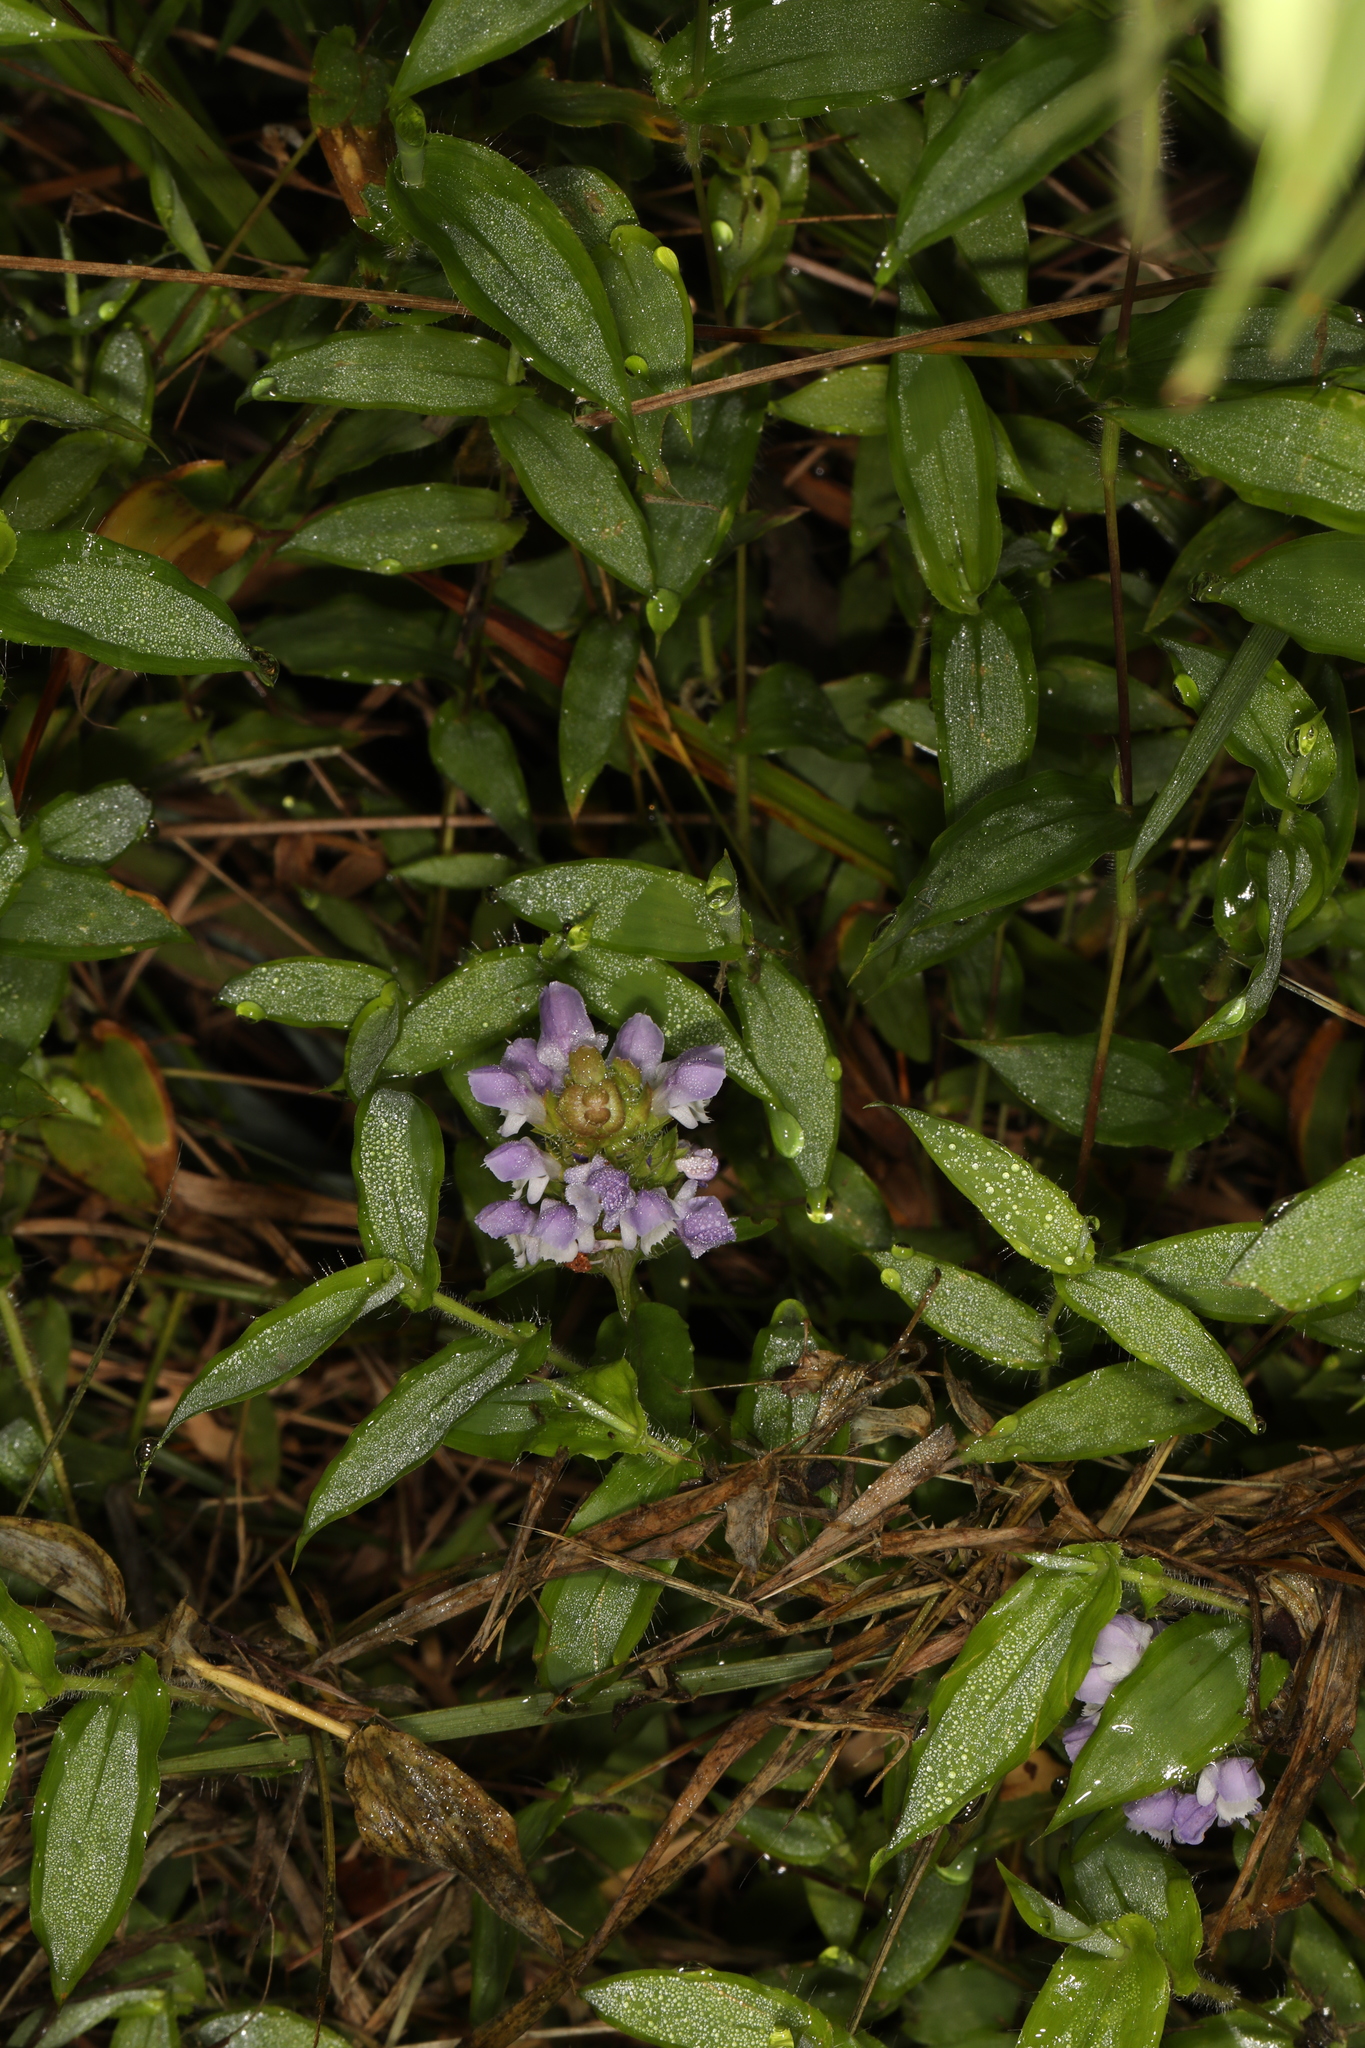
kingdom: Plantae
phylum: Tracheophyta
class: Magnoliopsida
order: Lamiales
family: Lamiaceae
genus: Prunella
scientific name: Prunella vulgaris
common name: Heal-all
